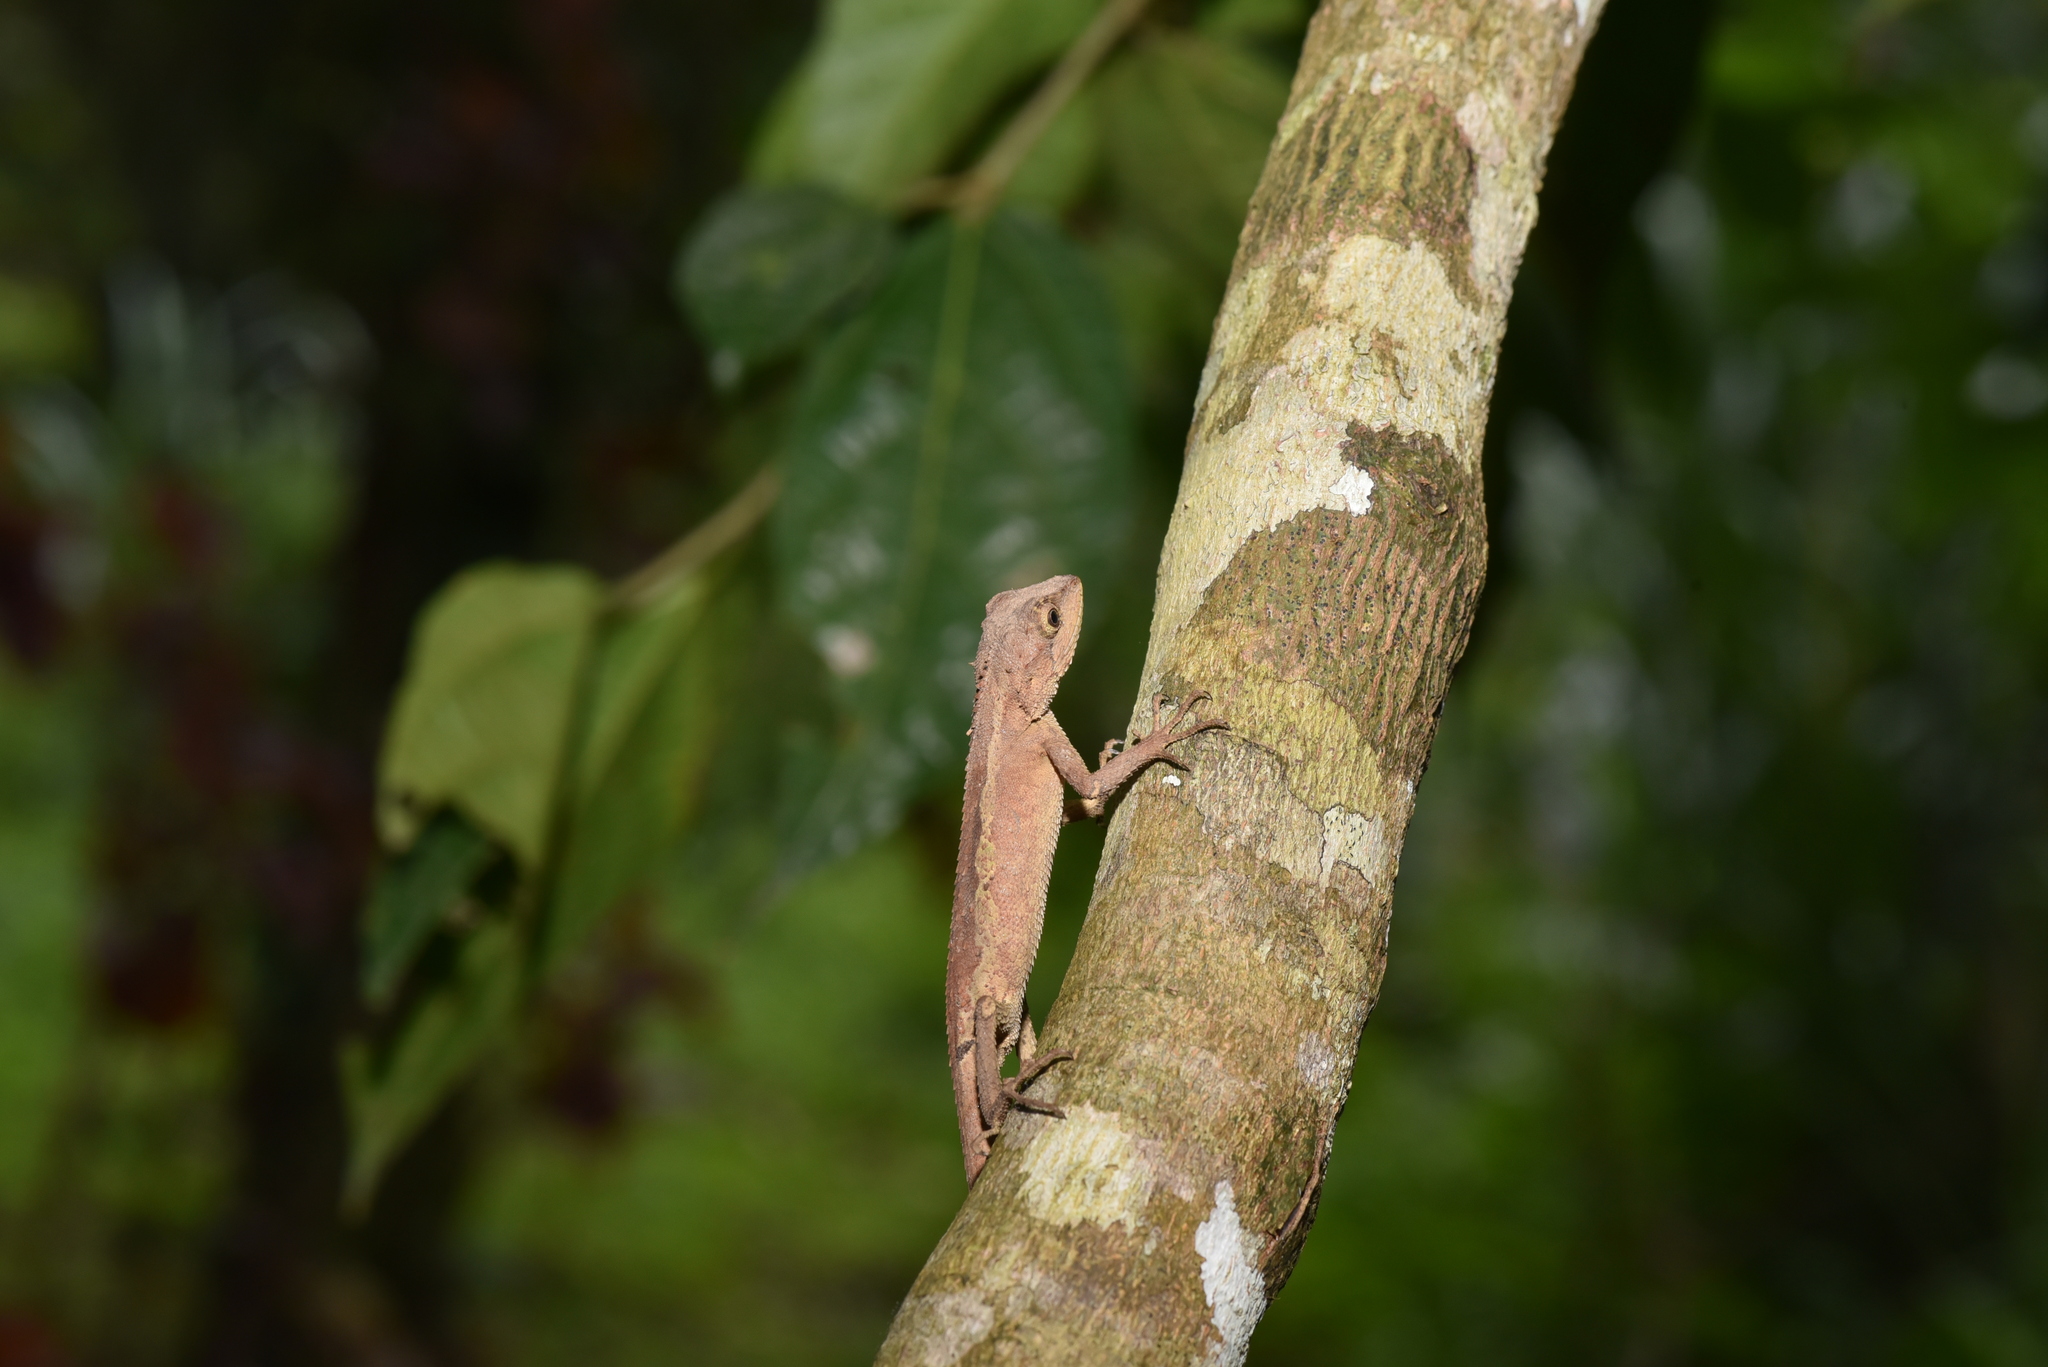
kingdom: Animalia
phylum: Chordata
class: Squamata
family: Agamidae
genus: Diploderma
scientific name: Diploderma swinhonis
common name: Taiwan japalure
